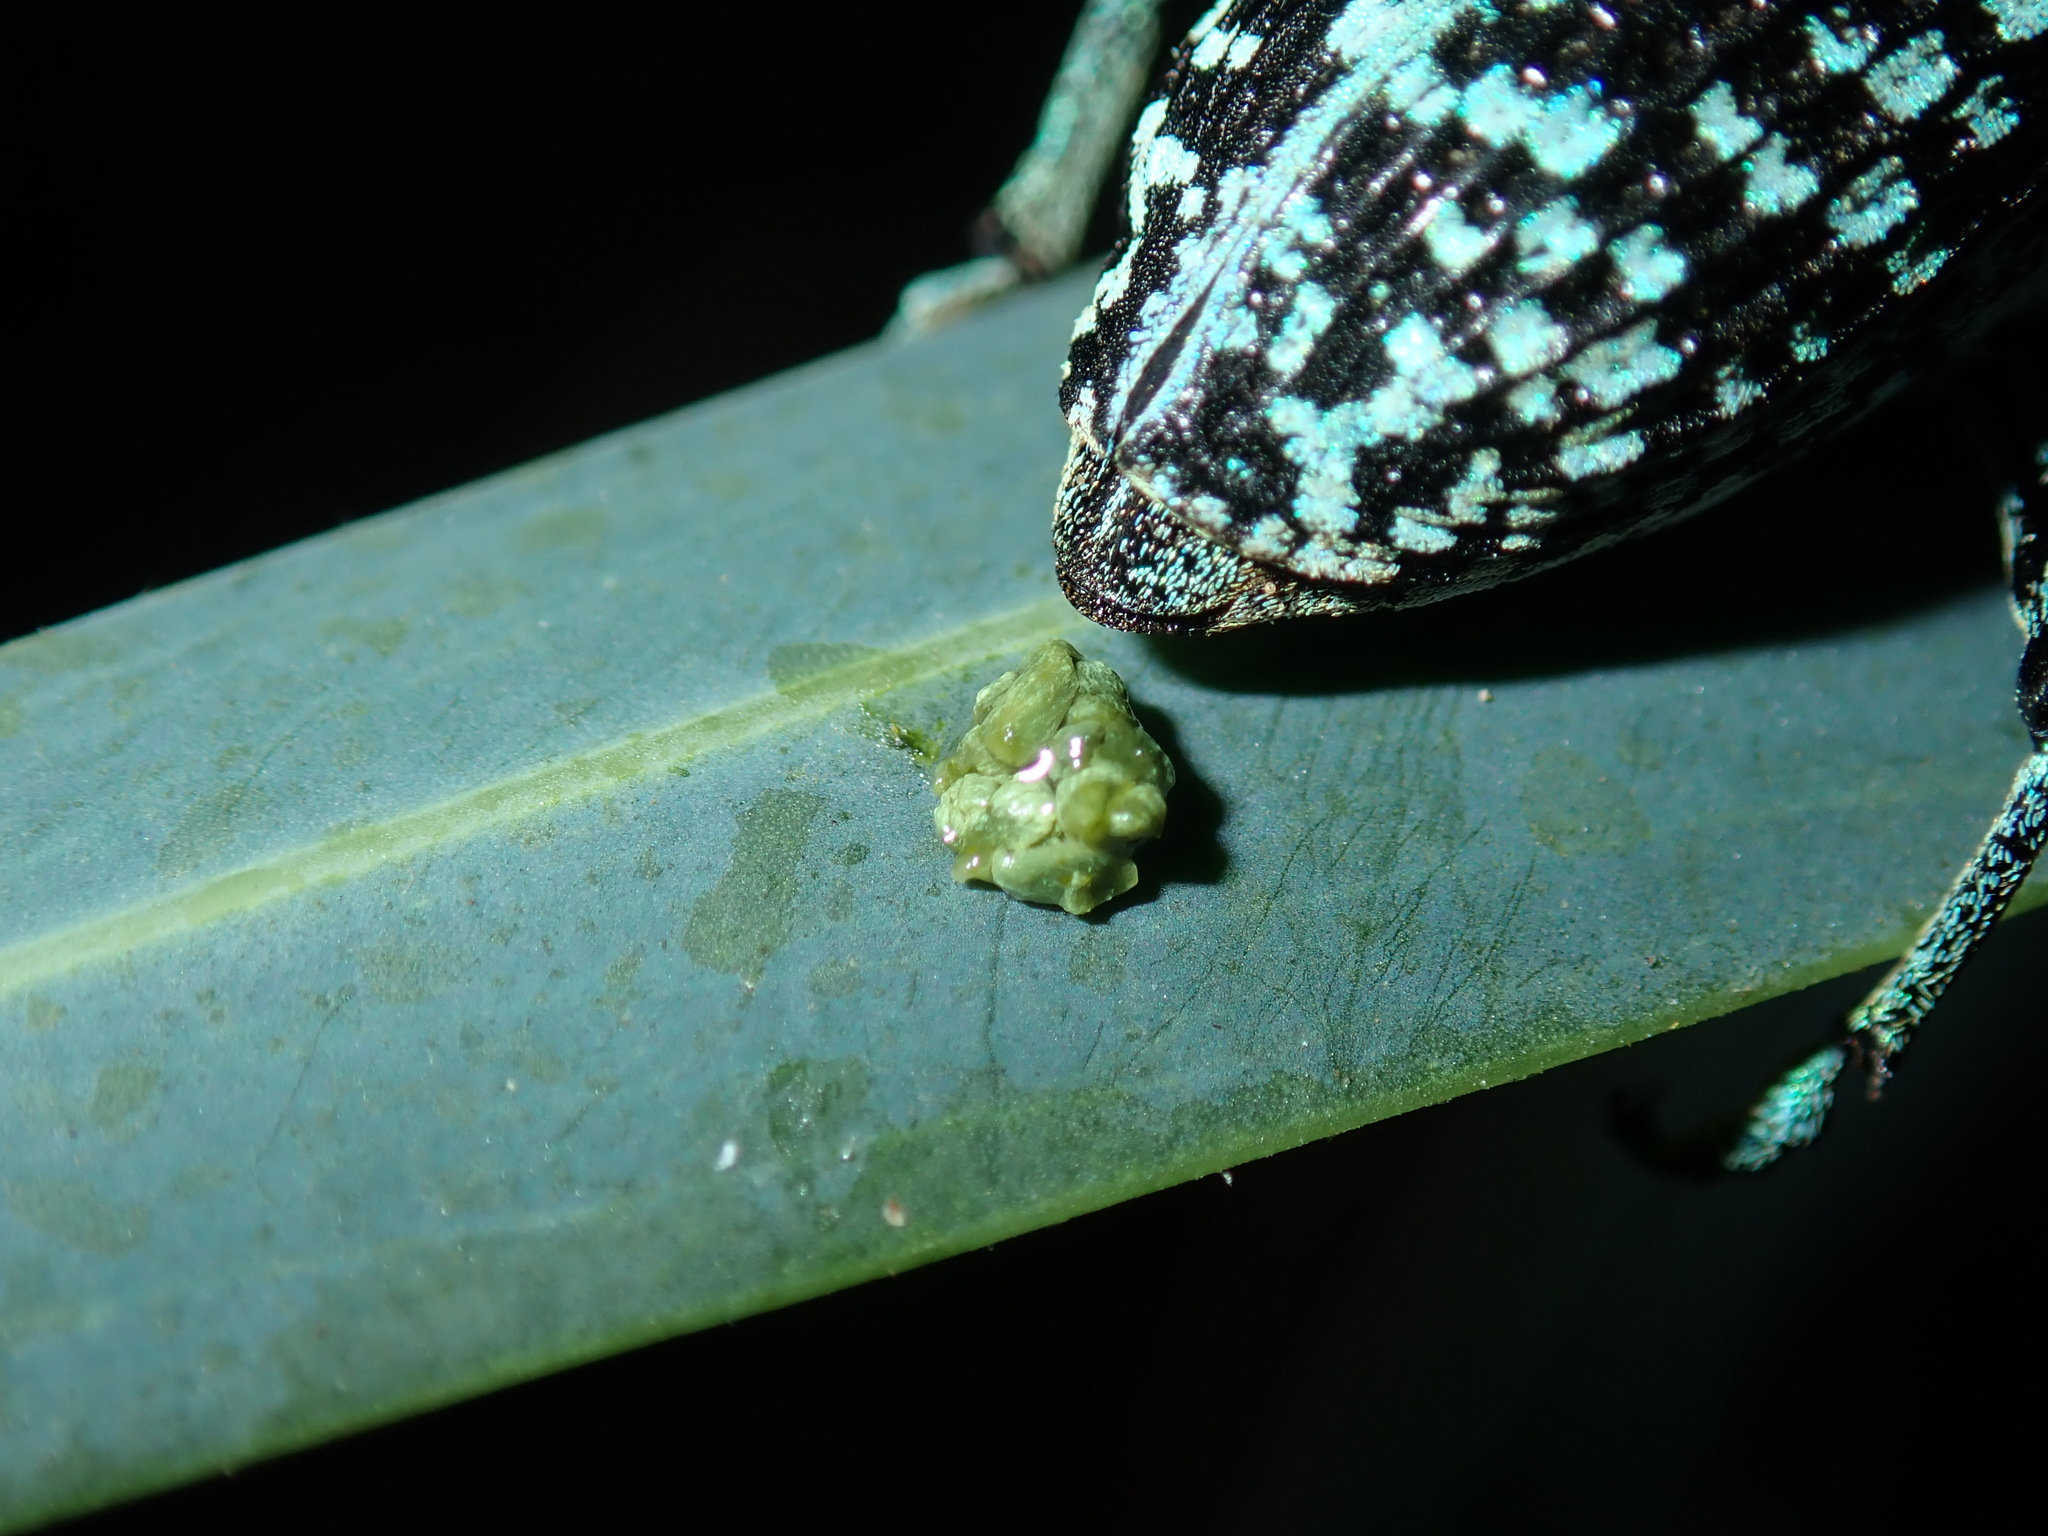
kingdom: Animalia
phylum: Arthropoda
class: Insecta
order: Coleoptera
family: Curculionidae
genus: Chrysolopus
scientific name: Chrysolopus spectabilis
